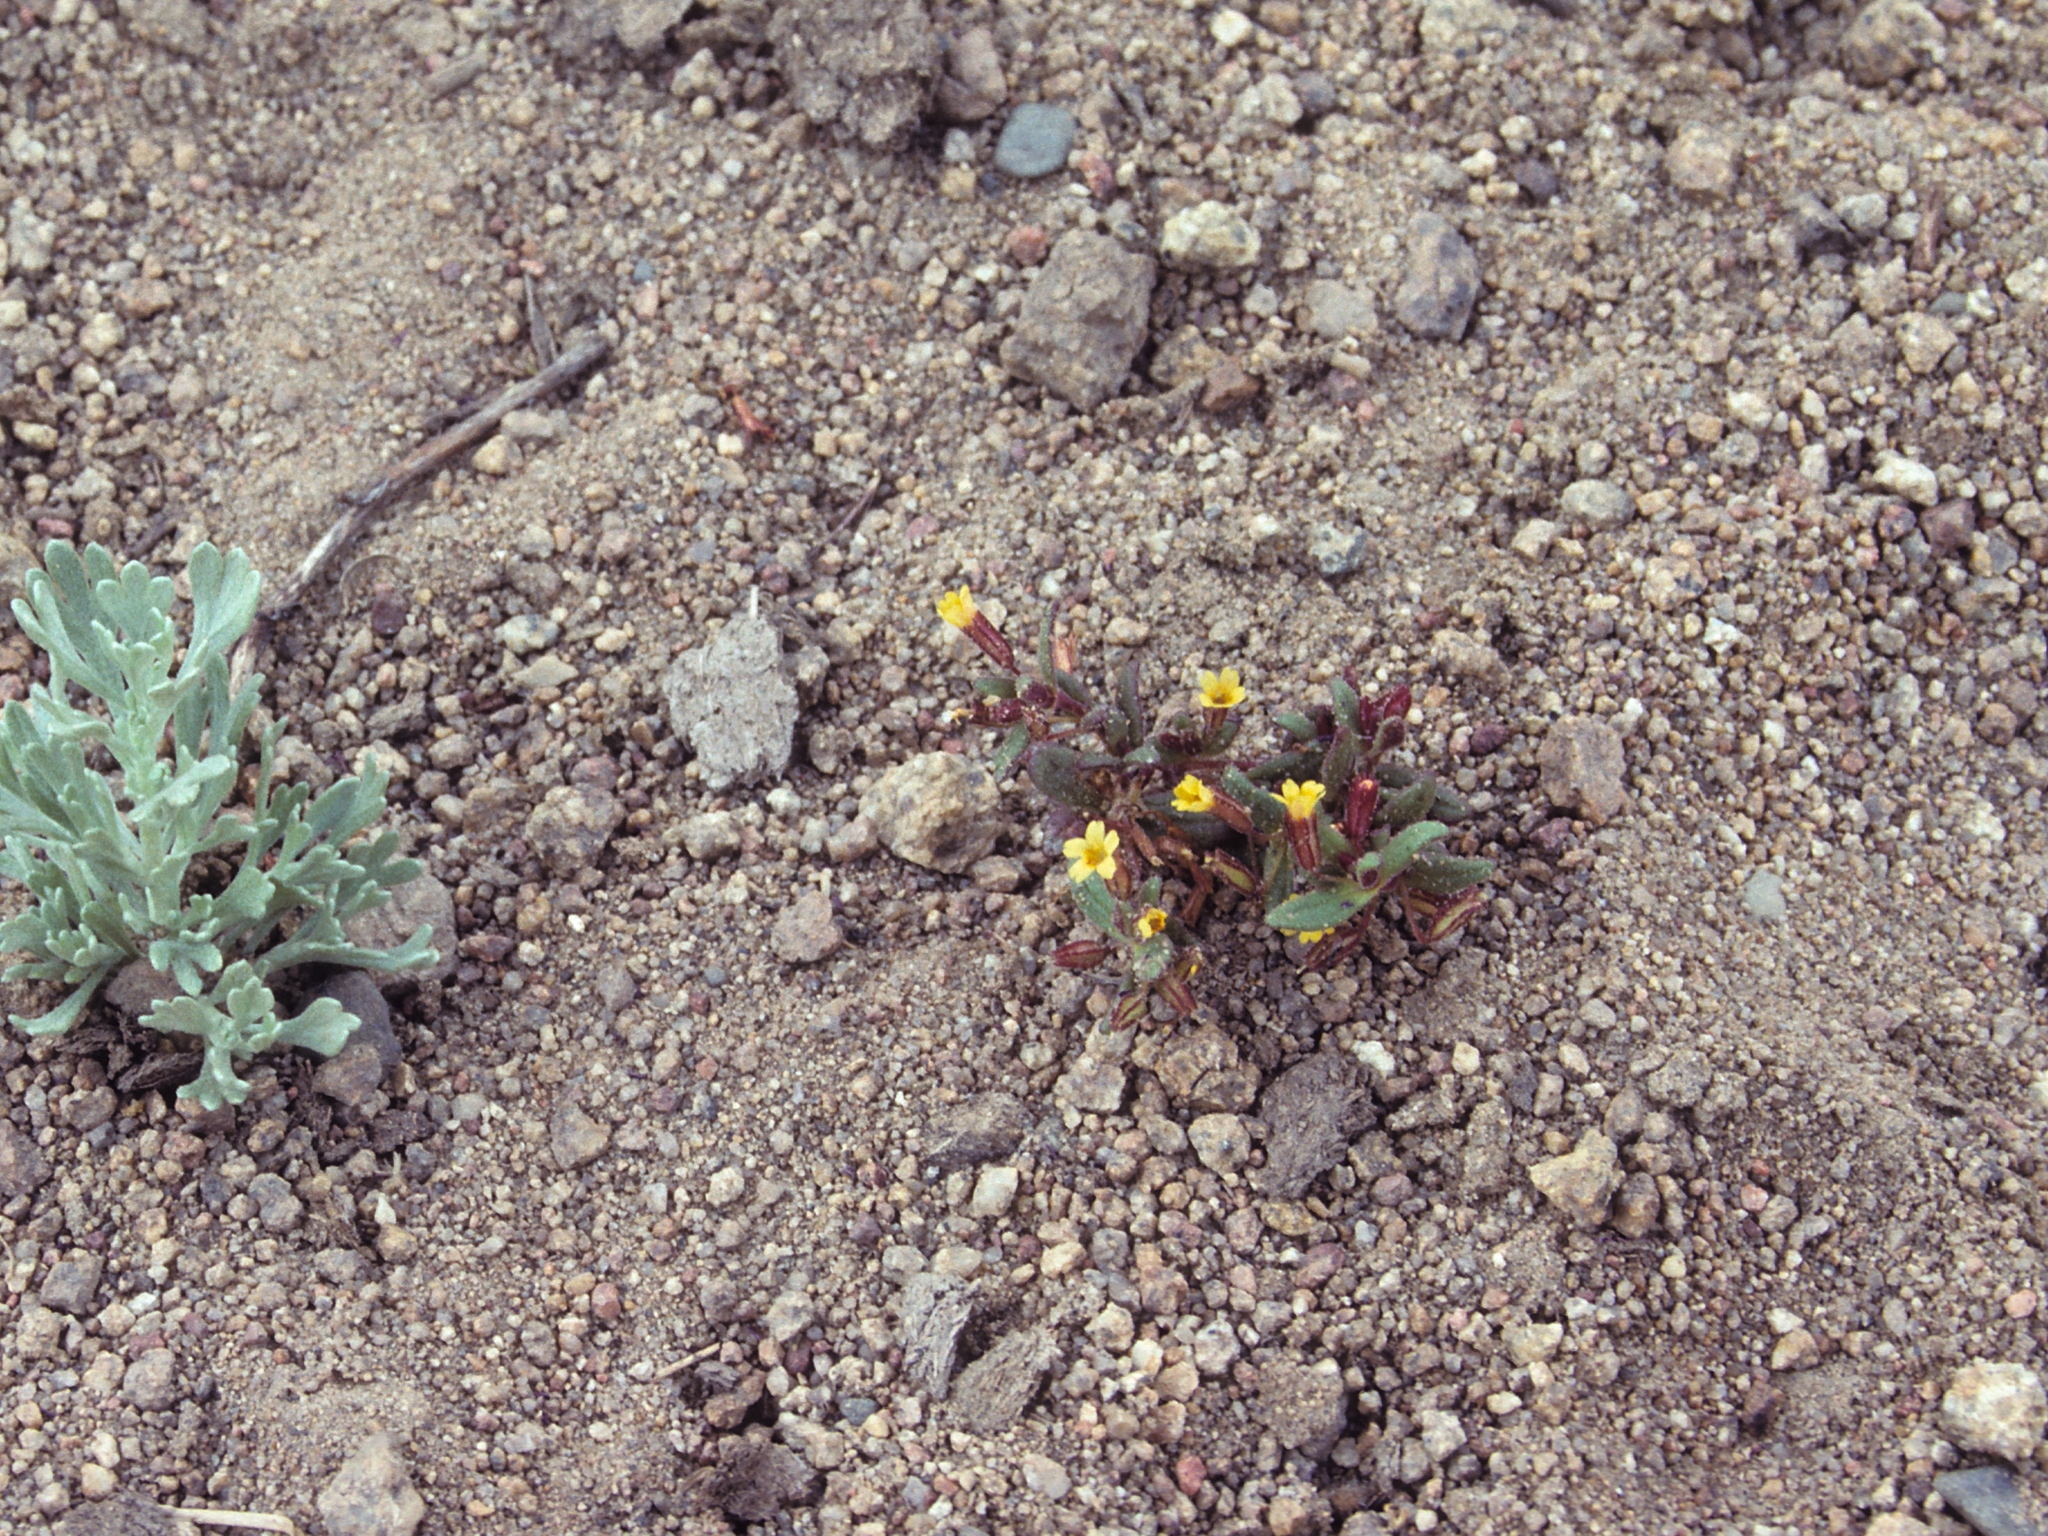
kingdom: Plantae
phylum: Tracheophyta
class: Magnoliopsida
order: Lamiales
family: Phrymaceae
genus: Erythranthe
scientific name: Erythranthe suksdorfii
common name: Suksdorf's monkeyflower
